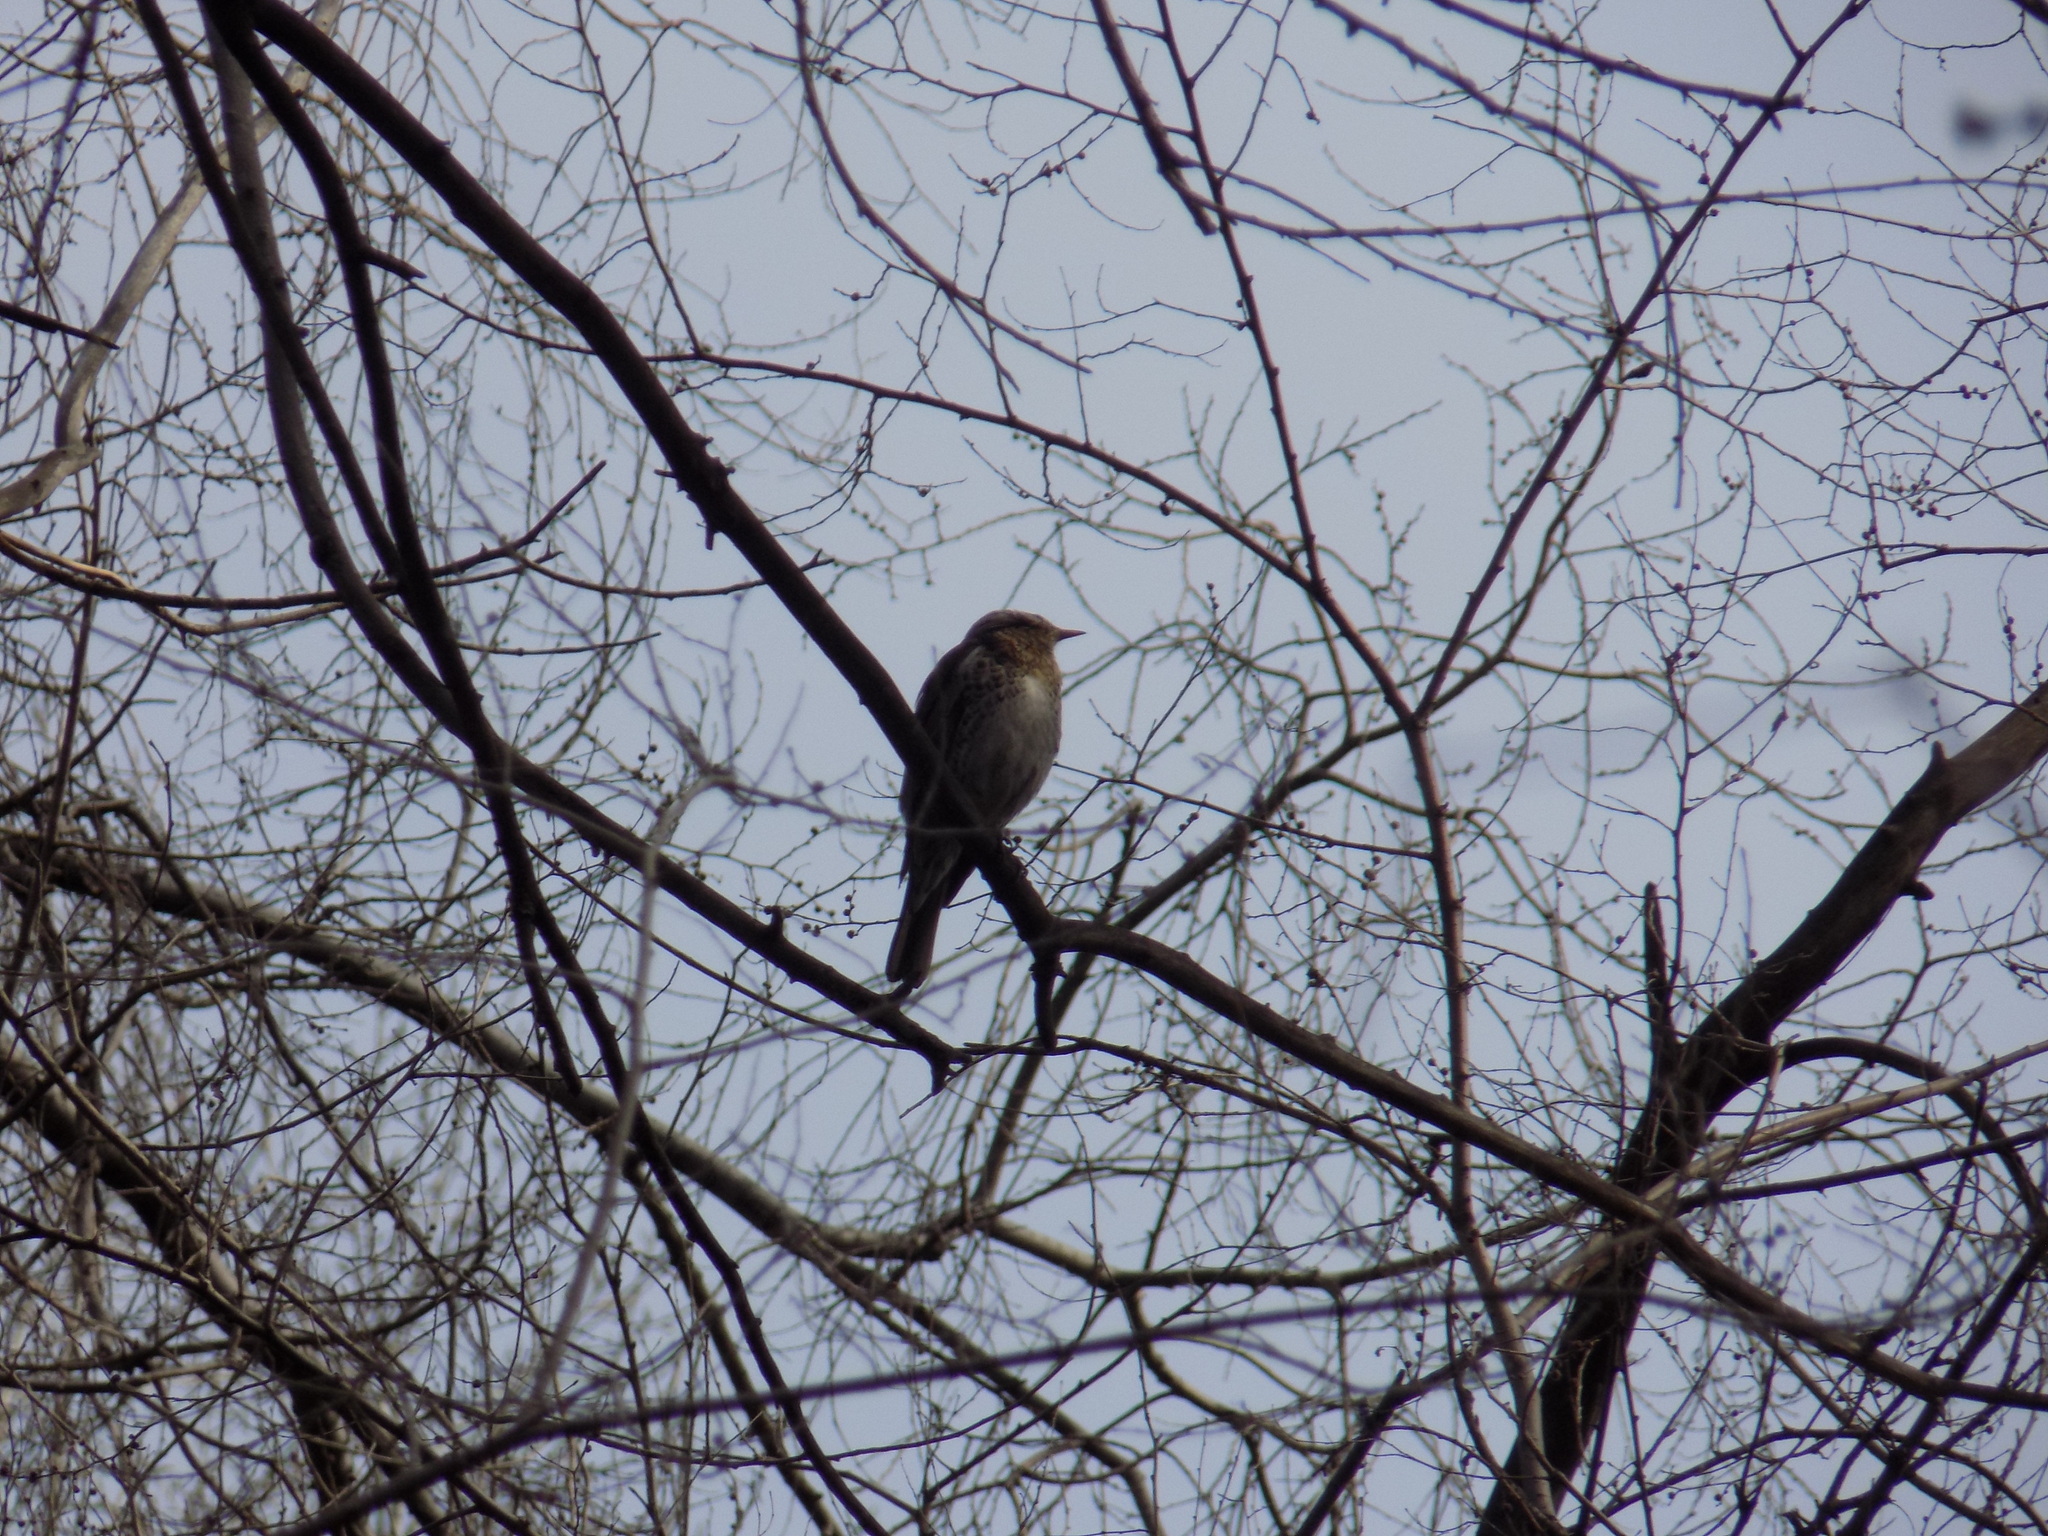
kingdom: Animalia
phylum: Chordata
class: Aves
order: Passeriformes
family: Turdidae
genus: Turdus
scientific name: Turdus pilaris
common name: Fieldfare
